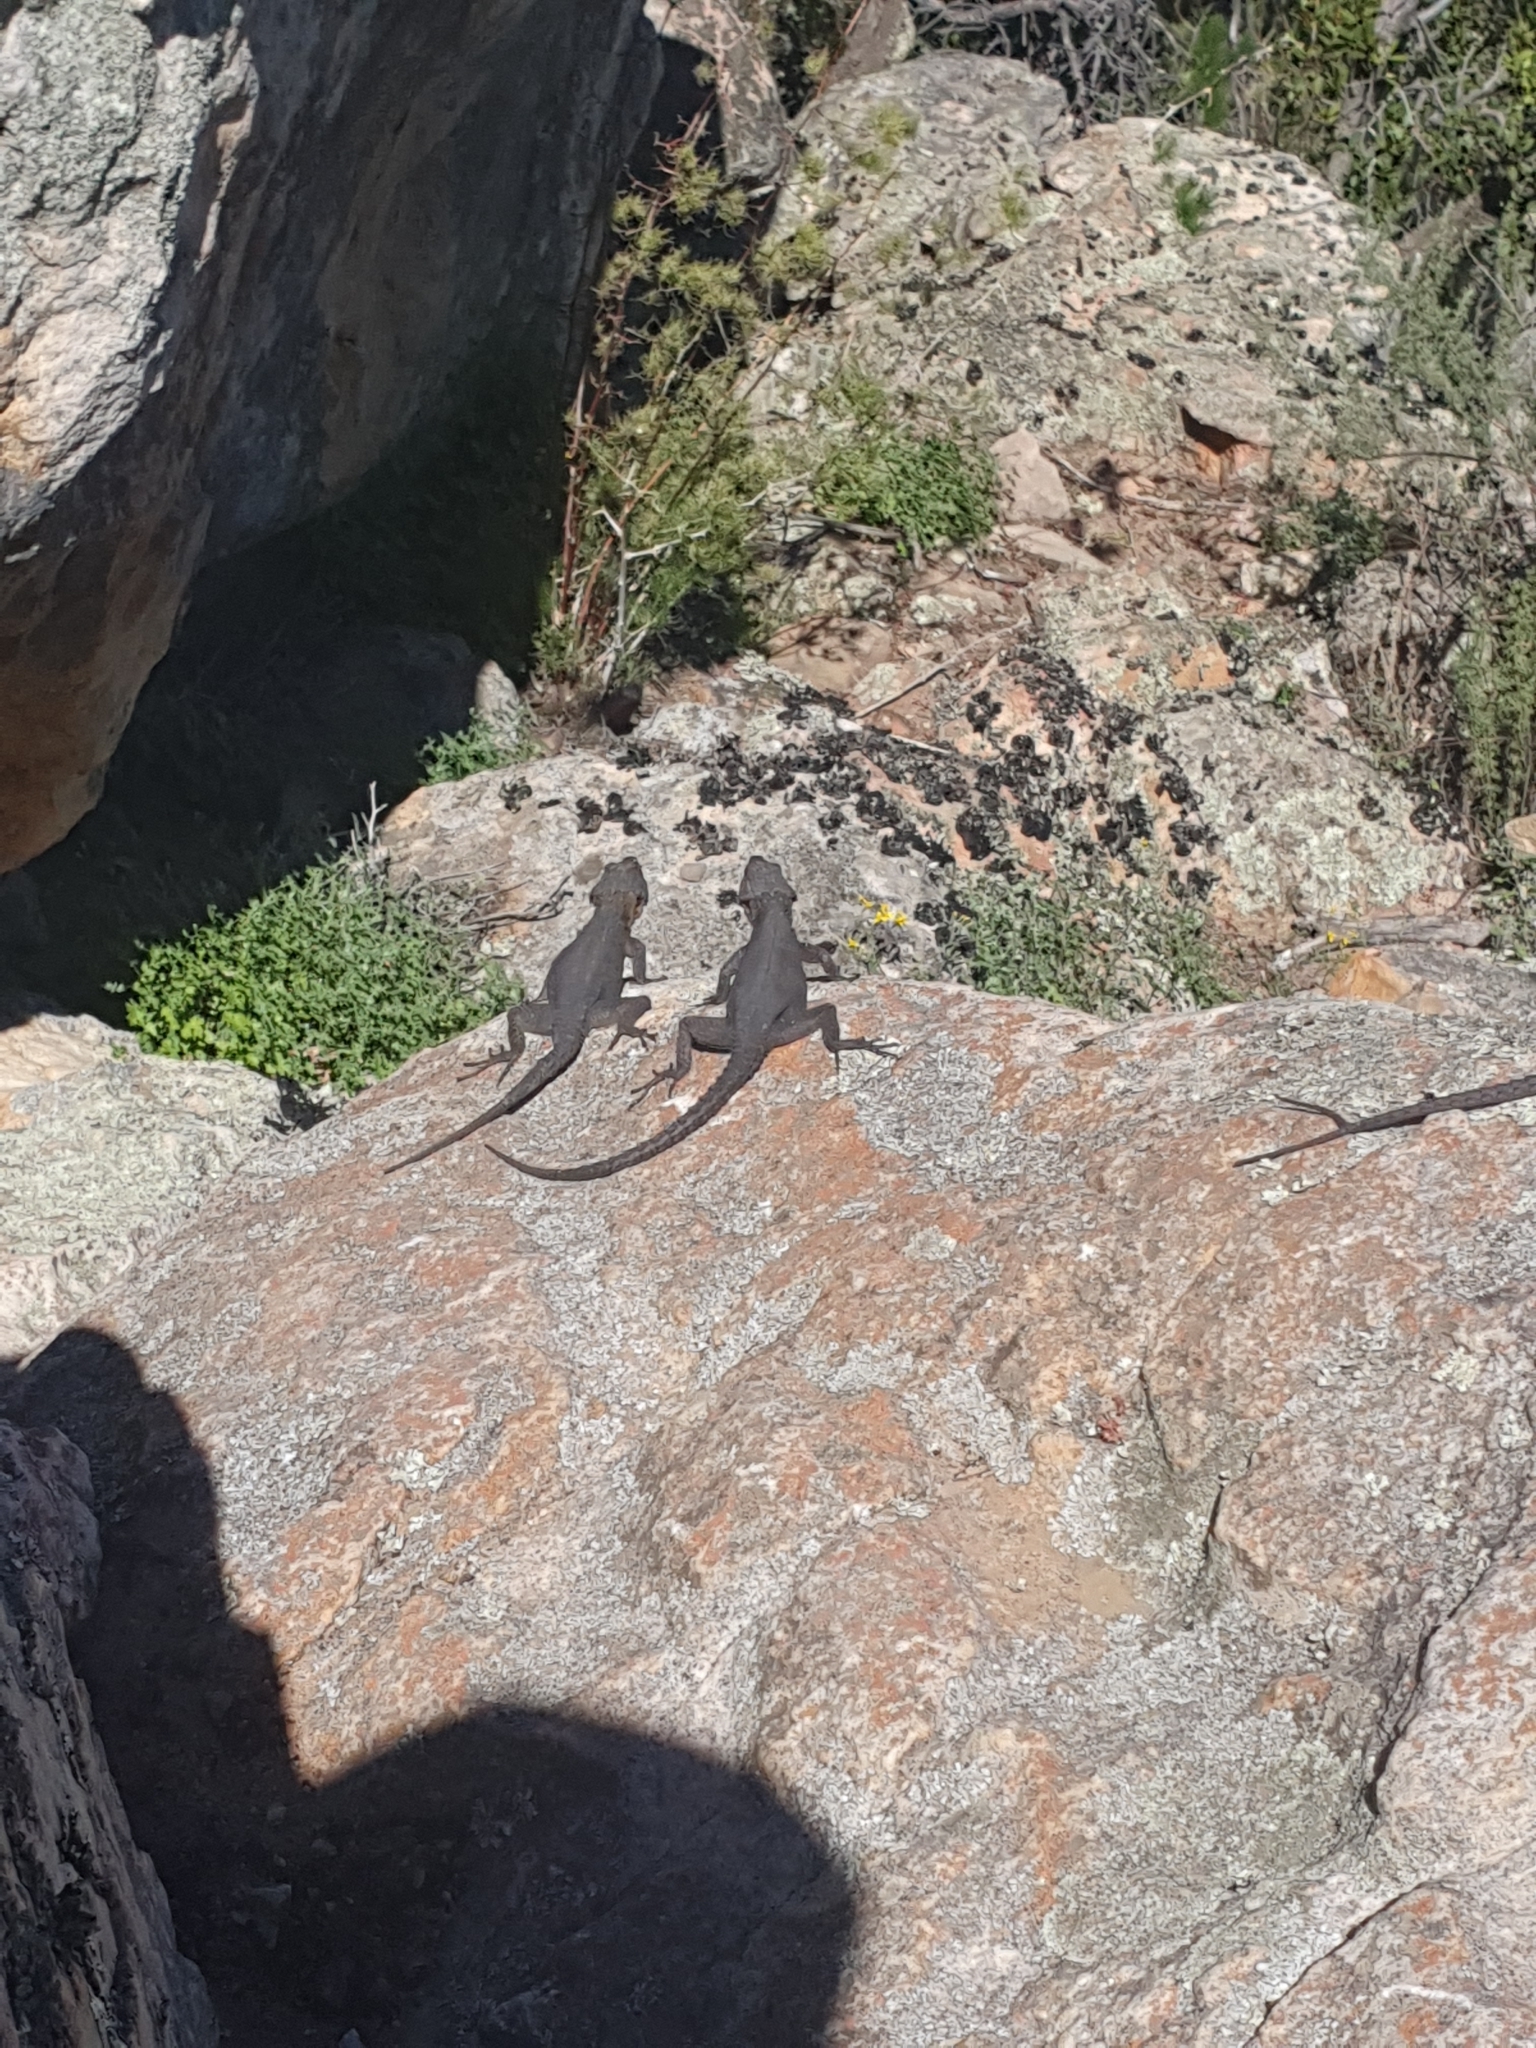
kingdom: Animalia
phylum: Chordata
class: Squamata
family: Cordylidae
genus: Hemicordylus
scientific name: Hemicordylus capensis
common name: Graceful crag lizard
